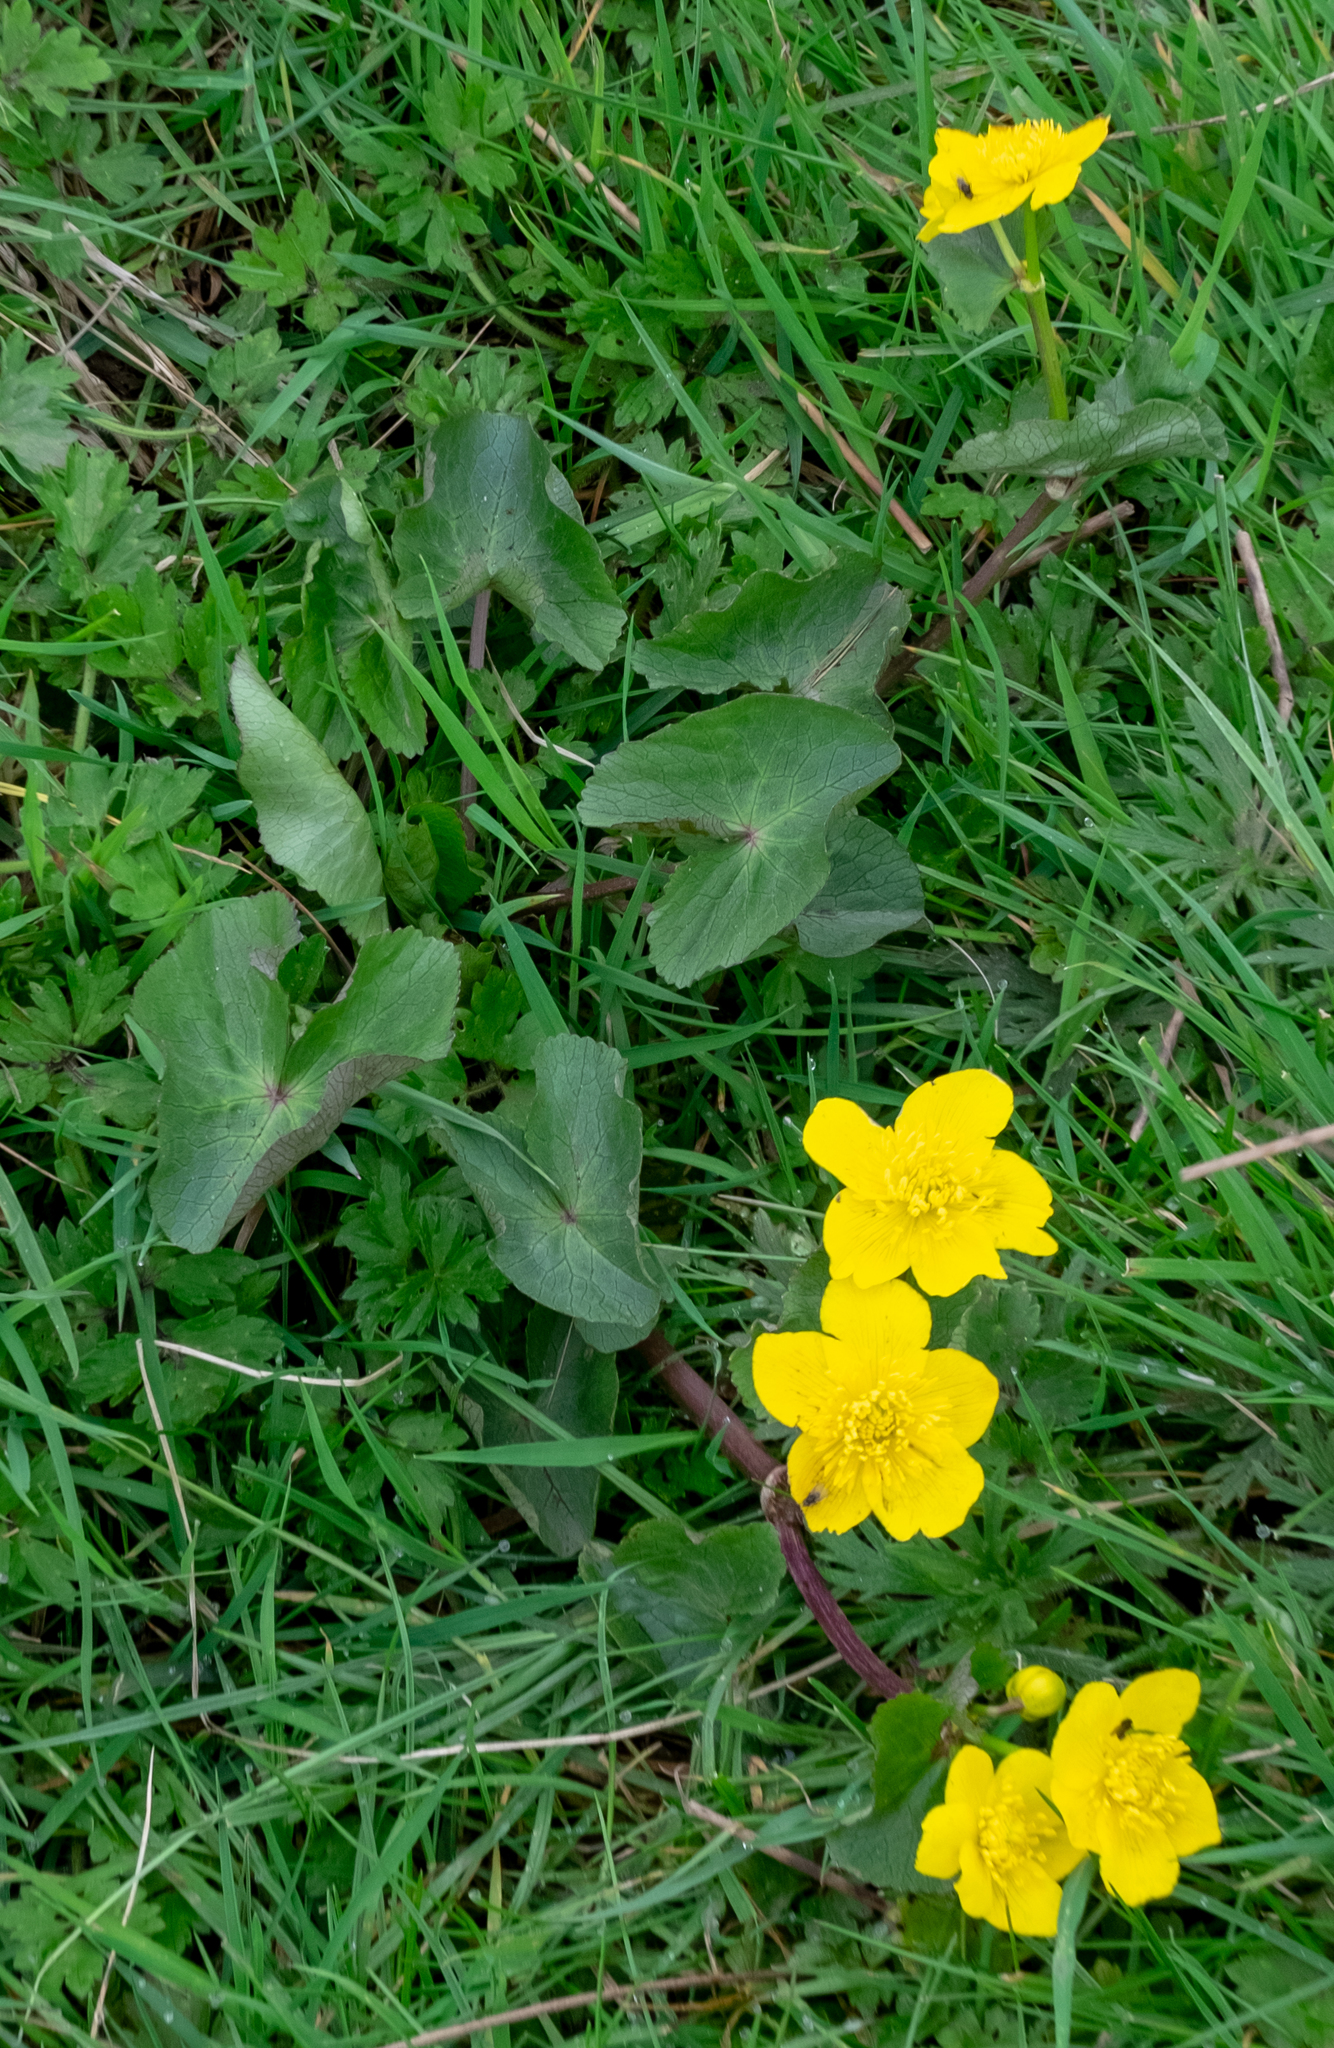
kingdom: Plantae
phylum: Tracheophyta
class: Magnoliopsida
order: Ranunculales
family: Ranunculaceae
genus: Caltha
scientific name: Caltha palustris
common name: Marsh marigold
